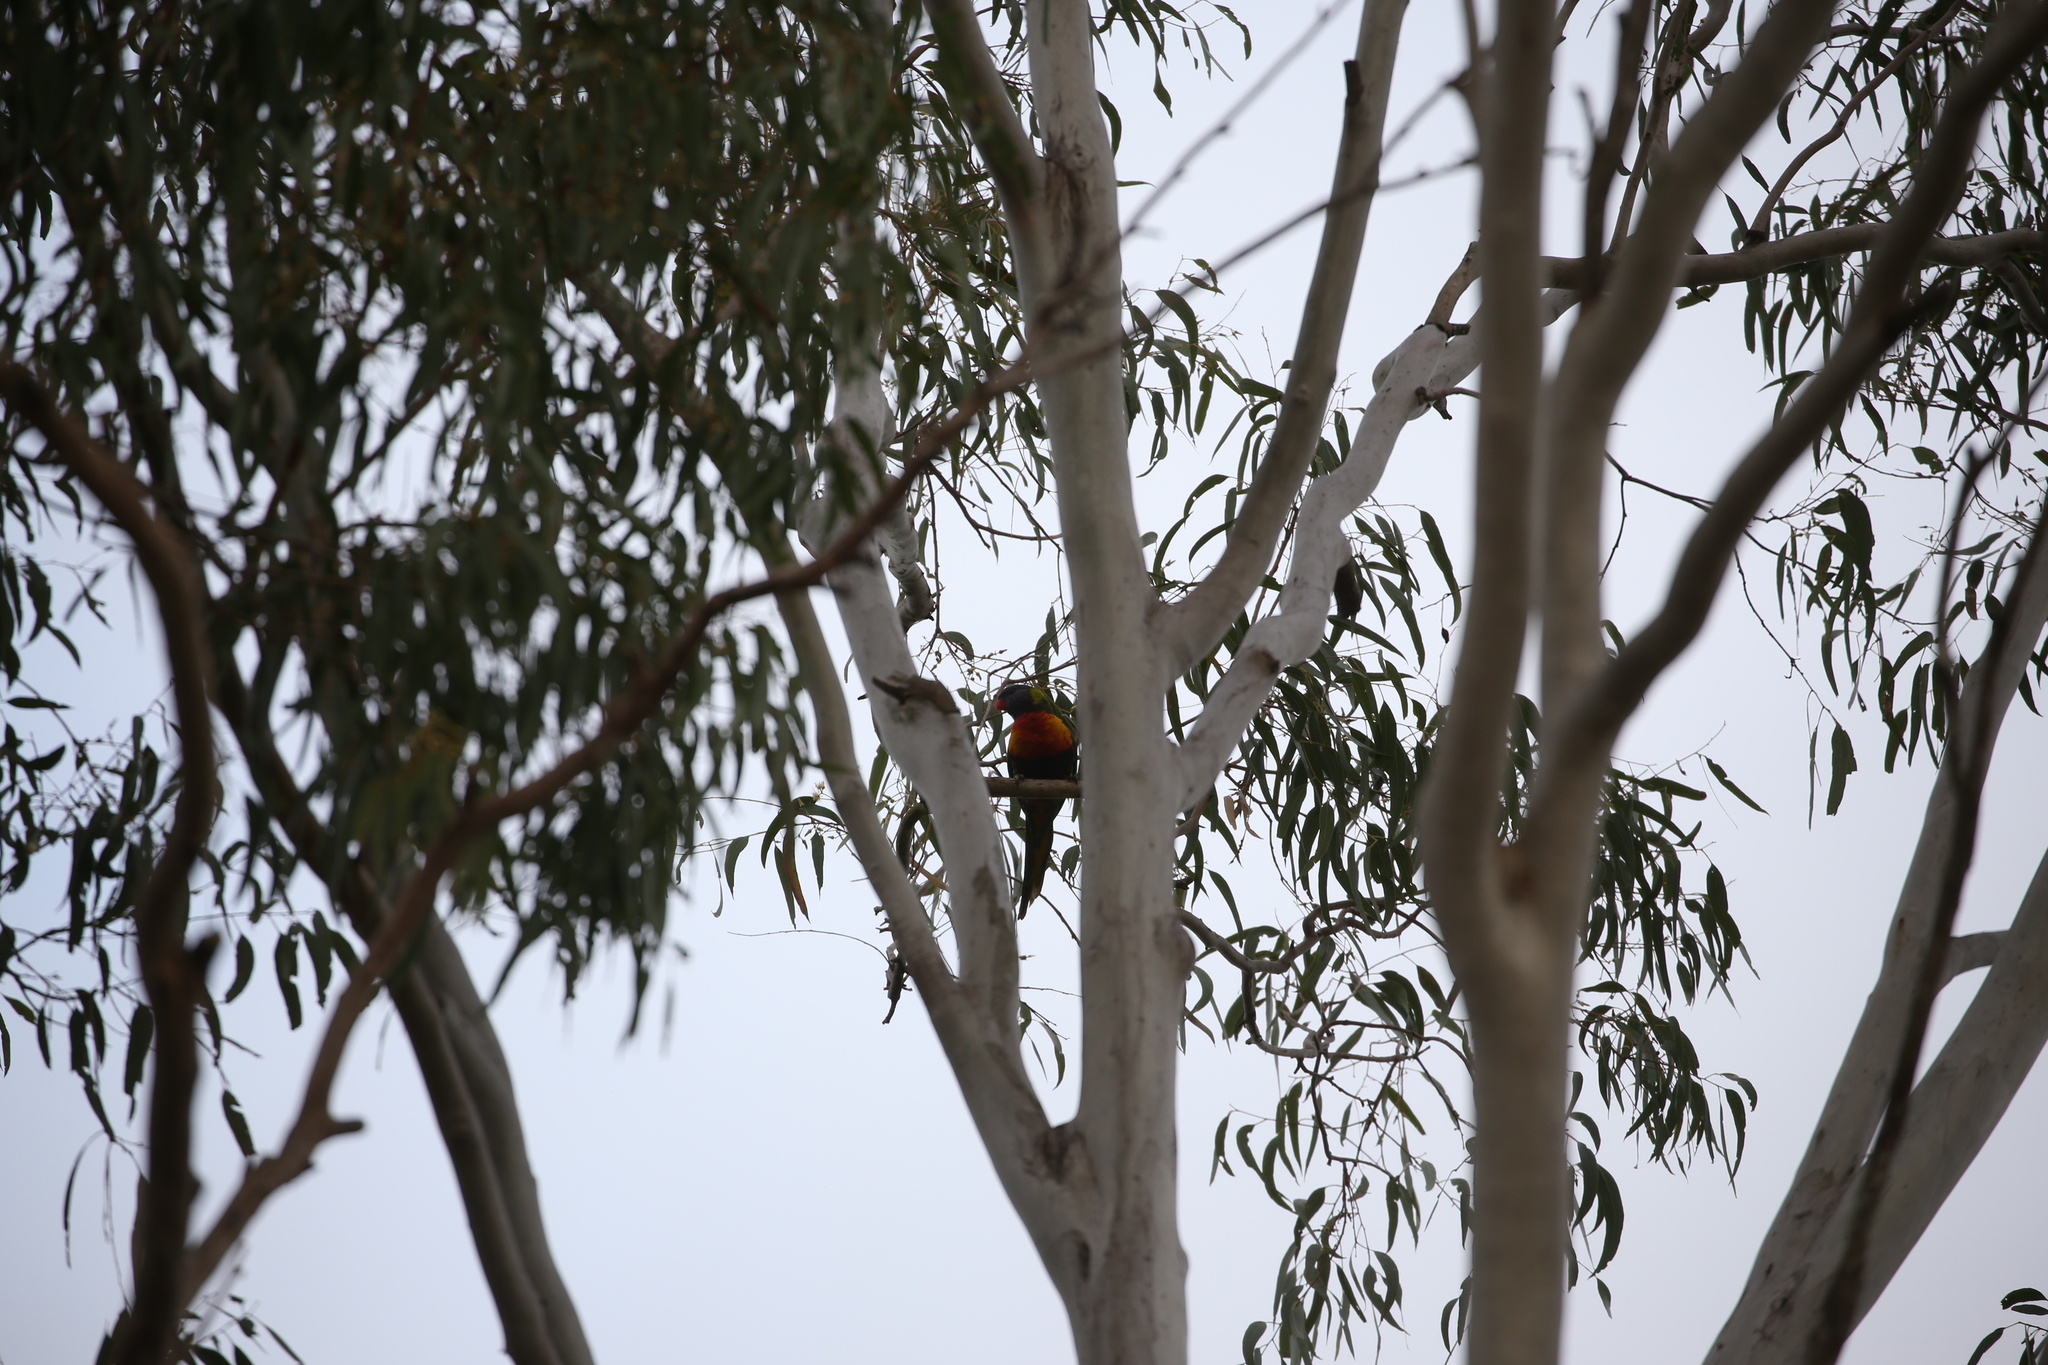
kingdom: Animalia
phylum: Chordata
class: Aves
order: Psittaciformes
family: Psittacidae
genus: Trichoglossus
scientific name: Trichoglossus haematodus
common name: Coconut lorikeet
